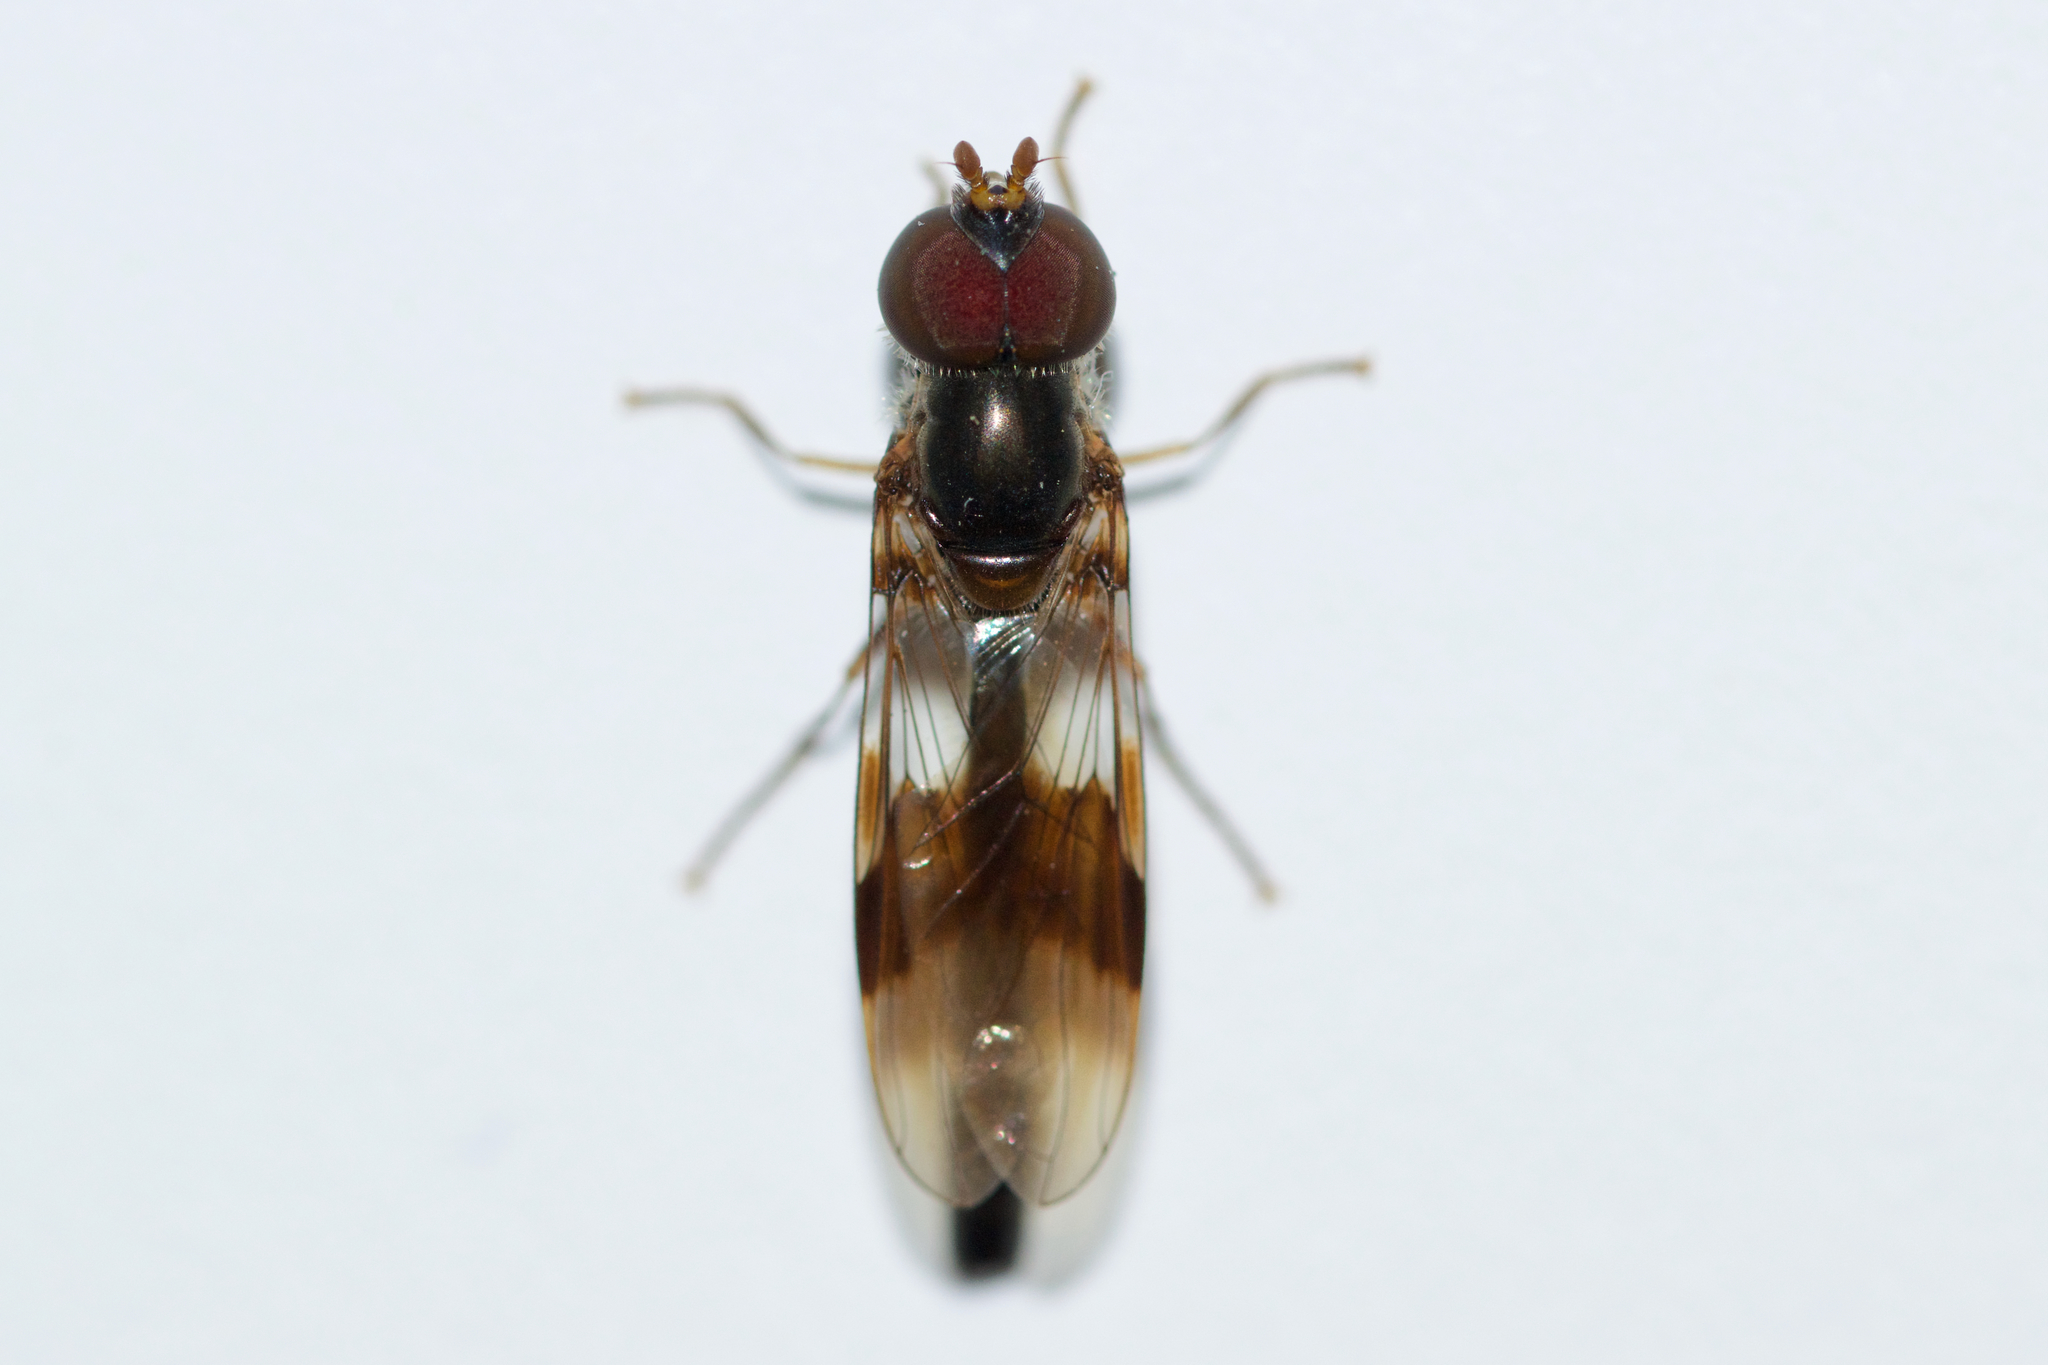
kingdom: Animalia
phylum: Arthropoda
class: Insecta
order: Diptera
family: Syrphidae
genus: Hypocritanus
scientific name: Hypocritanus fascipennis
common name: Eastern band-winged hover fly
